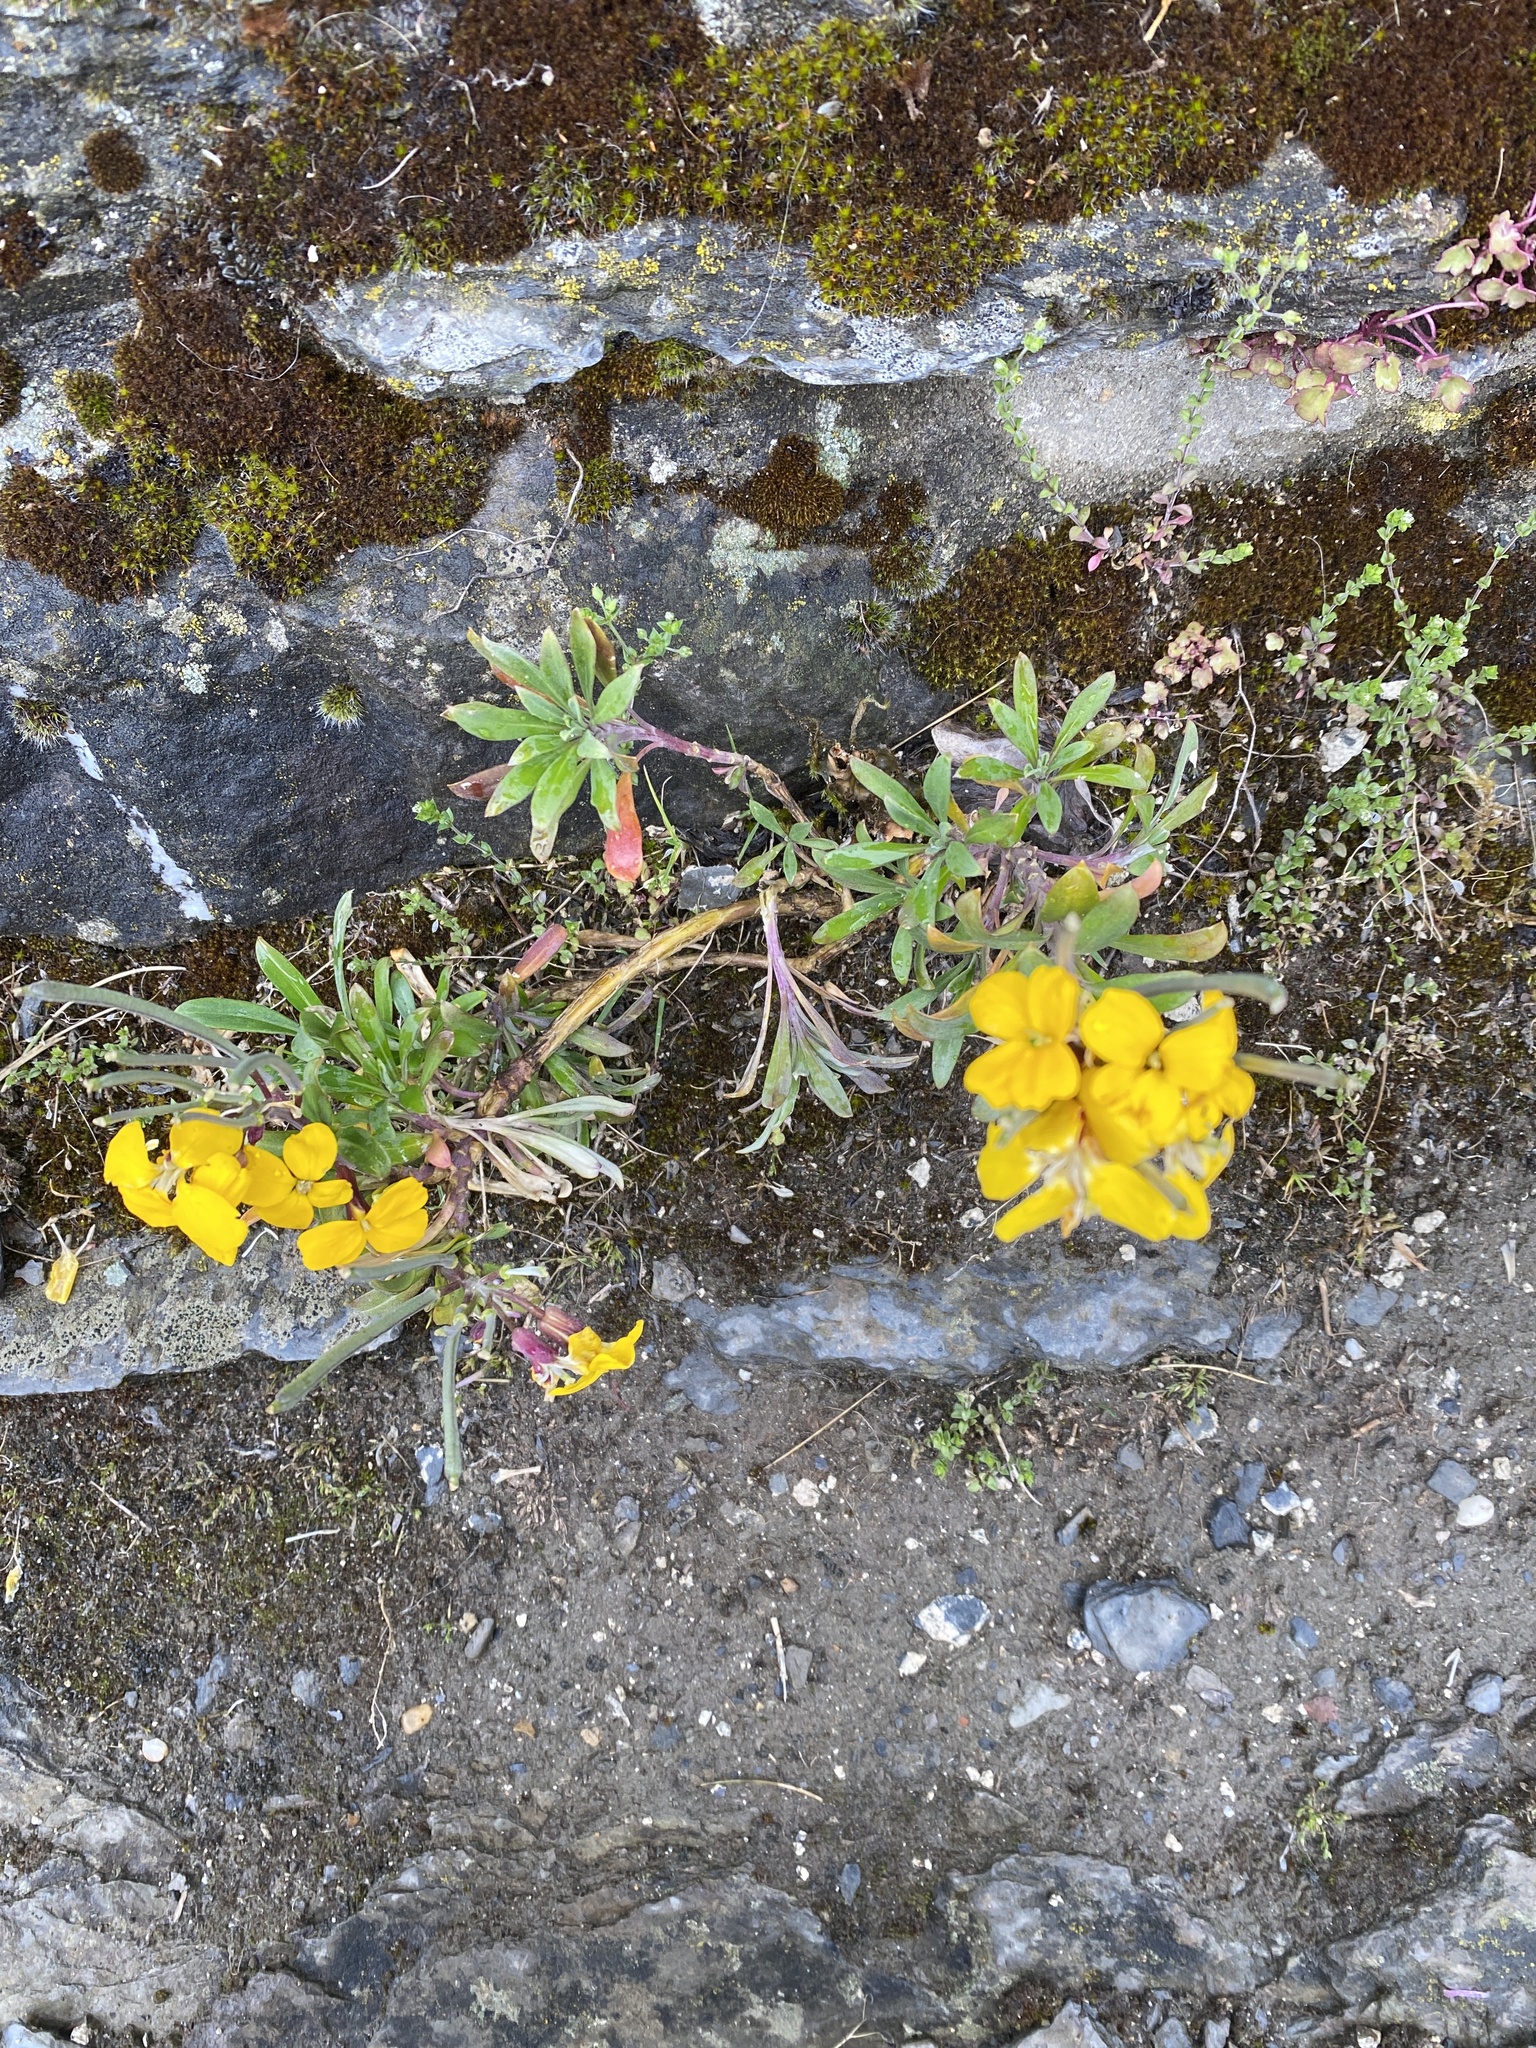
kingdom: Plantae
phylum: Tracheophyta
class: Magnoliopsida
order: Brassicales
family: Brassicaceae
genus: Erysimum
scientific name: Erysimum cheiri
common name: Wallflower
